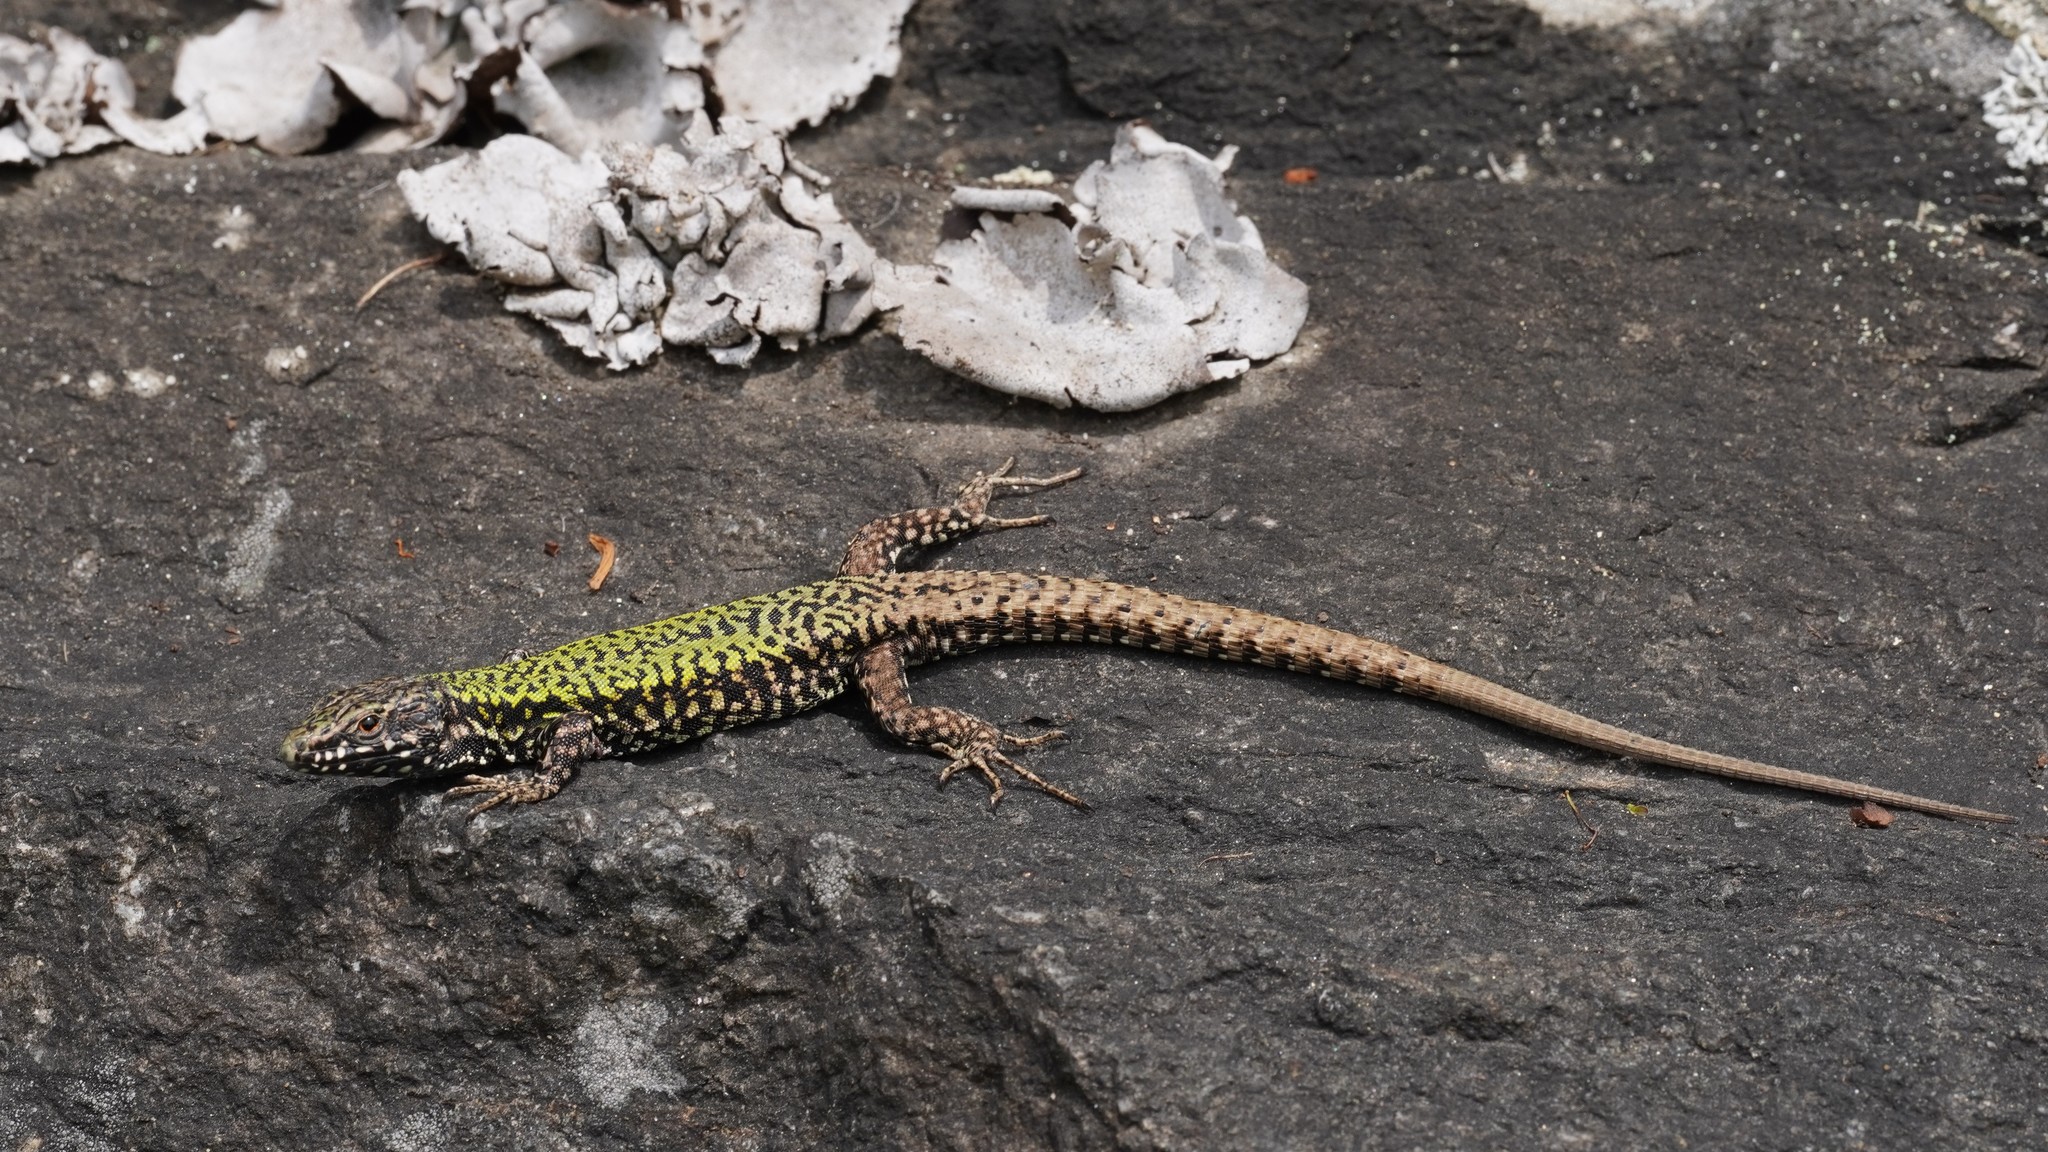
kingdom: Animalia
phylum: Chordata
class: Squamata
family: Lacertidae
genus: Podarcis
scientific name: Podarcis muralis
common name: Common wall lizard
